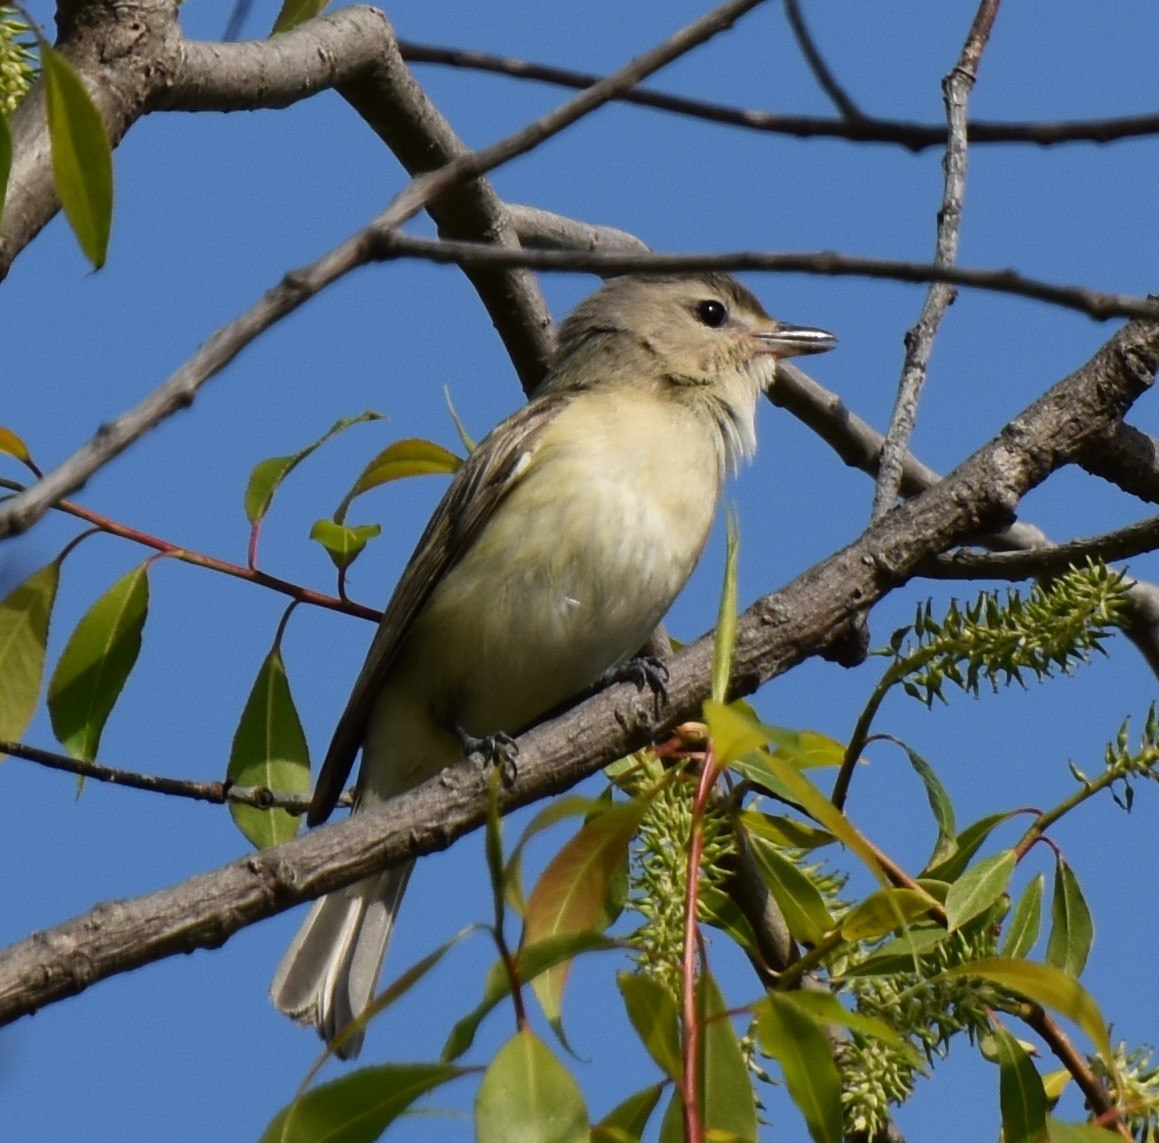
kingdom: Animalia
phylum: Chordata
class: Aves
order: Passeriformes
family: Vireonidae
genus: Vireo
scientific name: Vireo gilvus
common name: Warbling vireo
